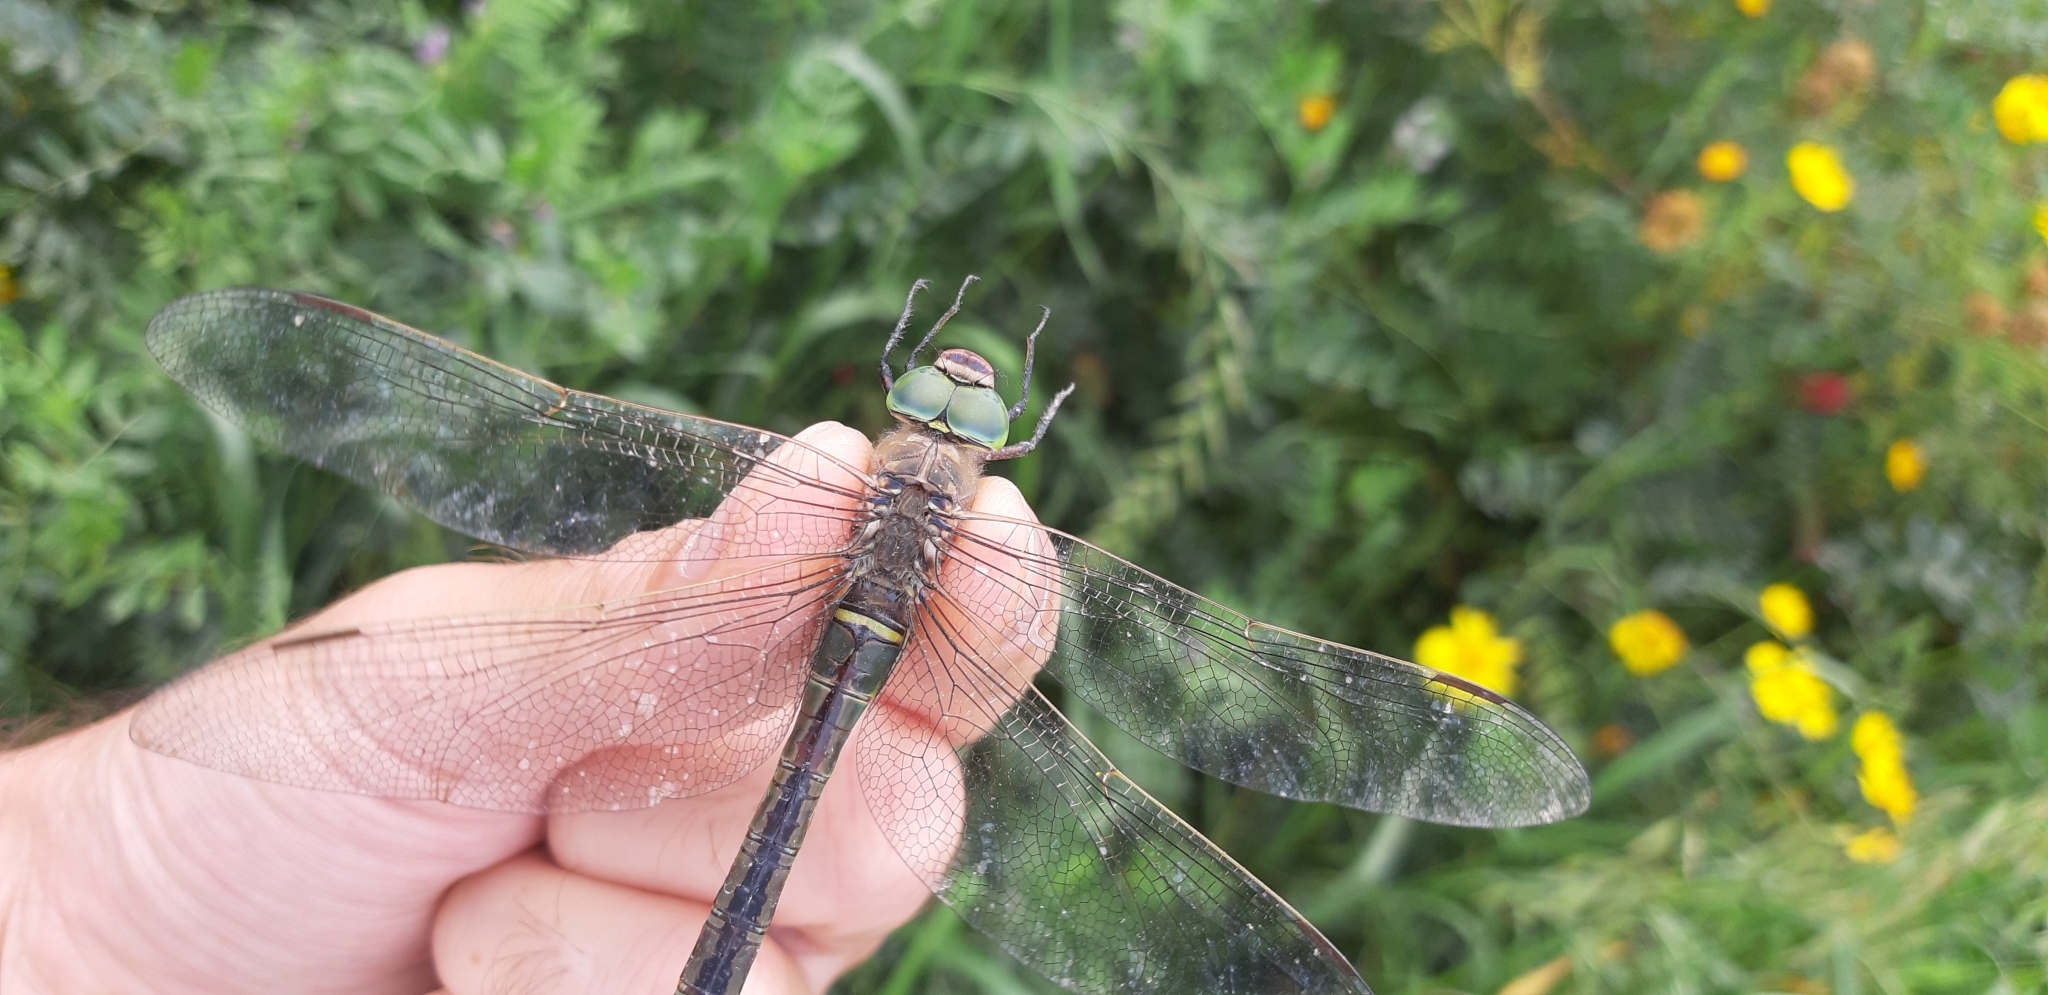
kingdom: Animalia
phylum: Arthropoda
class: Insecta
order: Odonata
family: Aeshnidae
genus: Anax
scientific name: Anax parthenope
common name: Lesser emperor
